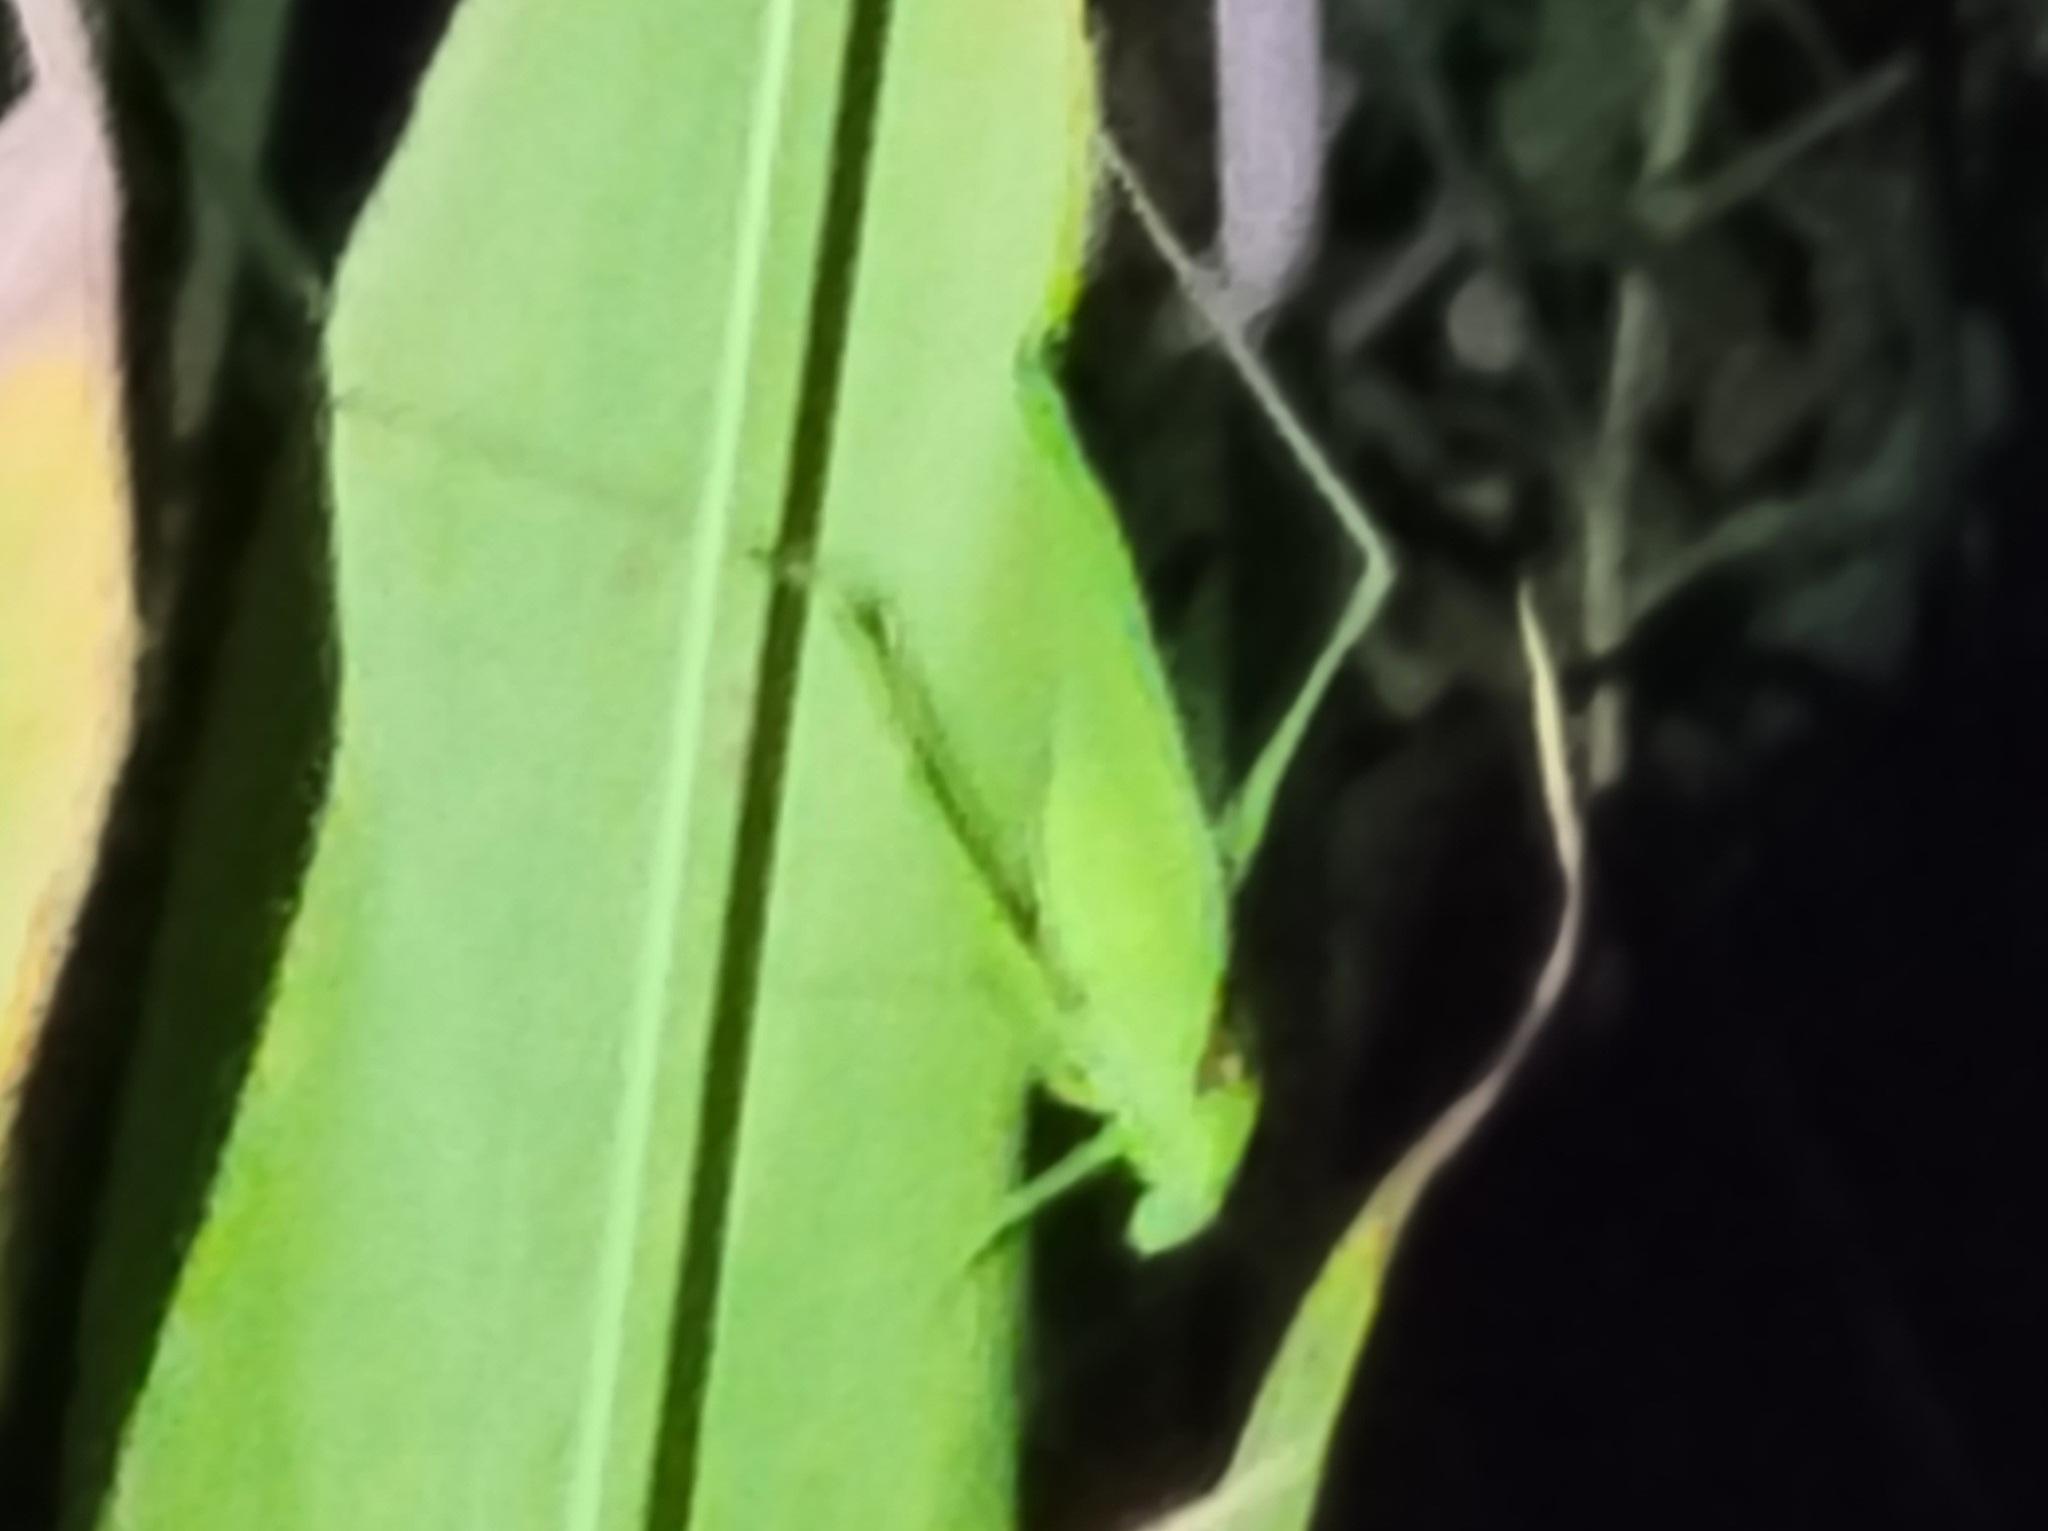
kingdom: Animalia
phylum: Arthropoda
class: Insecta
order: Orthoptera
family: Tettigoniidae
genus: Amblycorypha
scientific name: Amblycorypha floridana
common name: Florida false katydid
